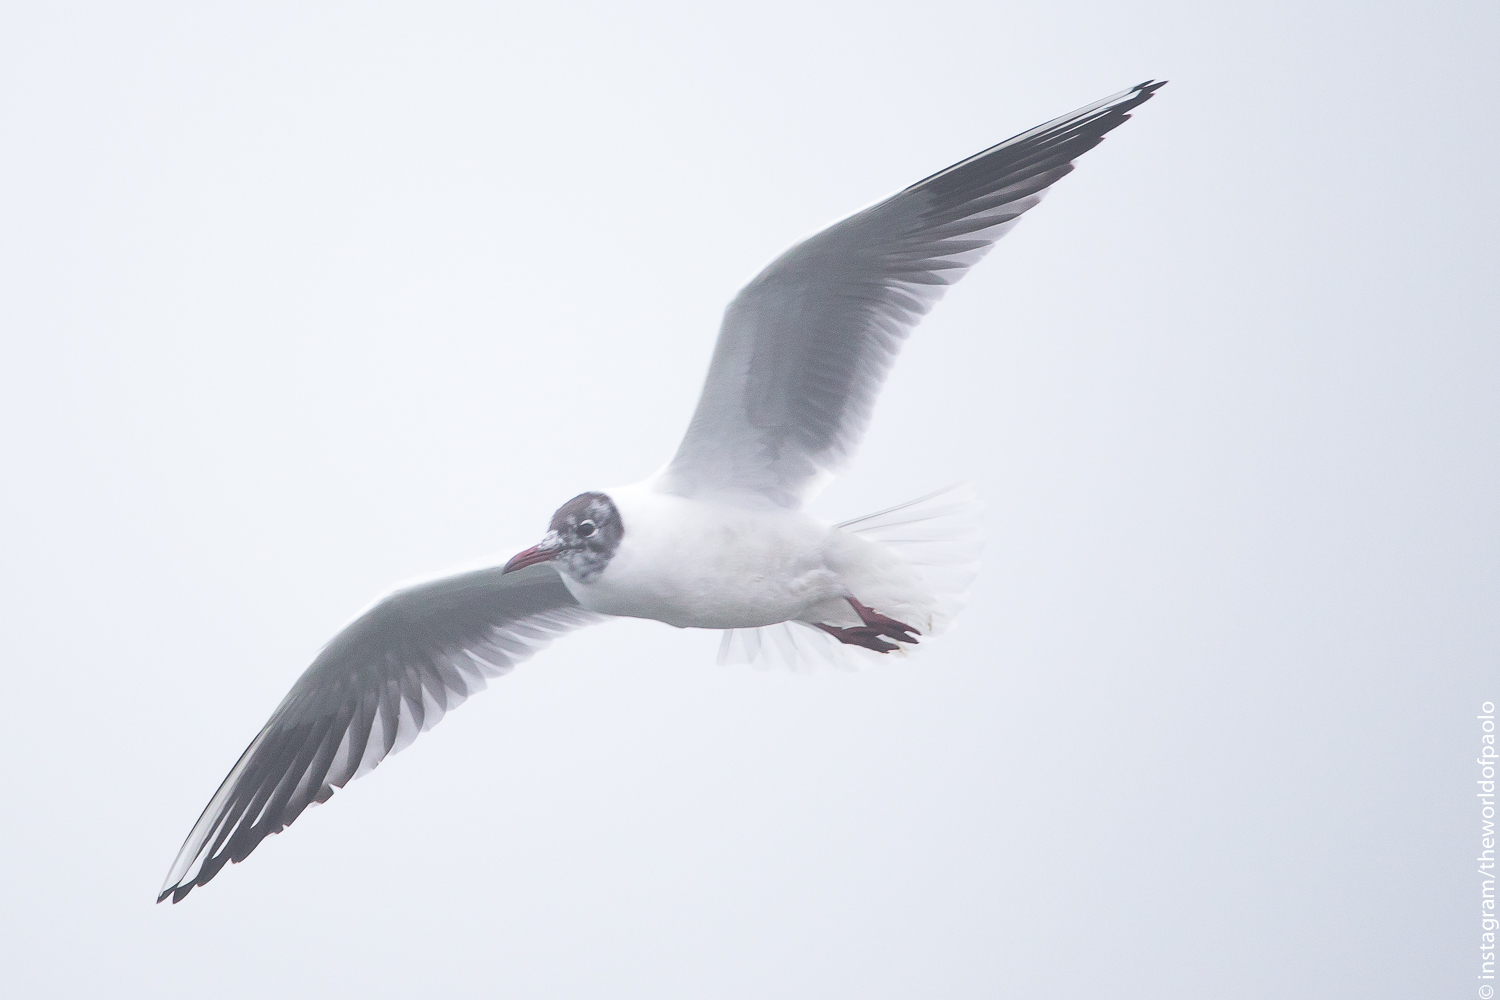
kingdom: Animalia
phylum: Chordata
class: Aves
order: Charadriiformes
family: Laridae
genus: Chroicocephalus
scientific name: Chroicocephalus ridibundus
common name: Black-headed gull
